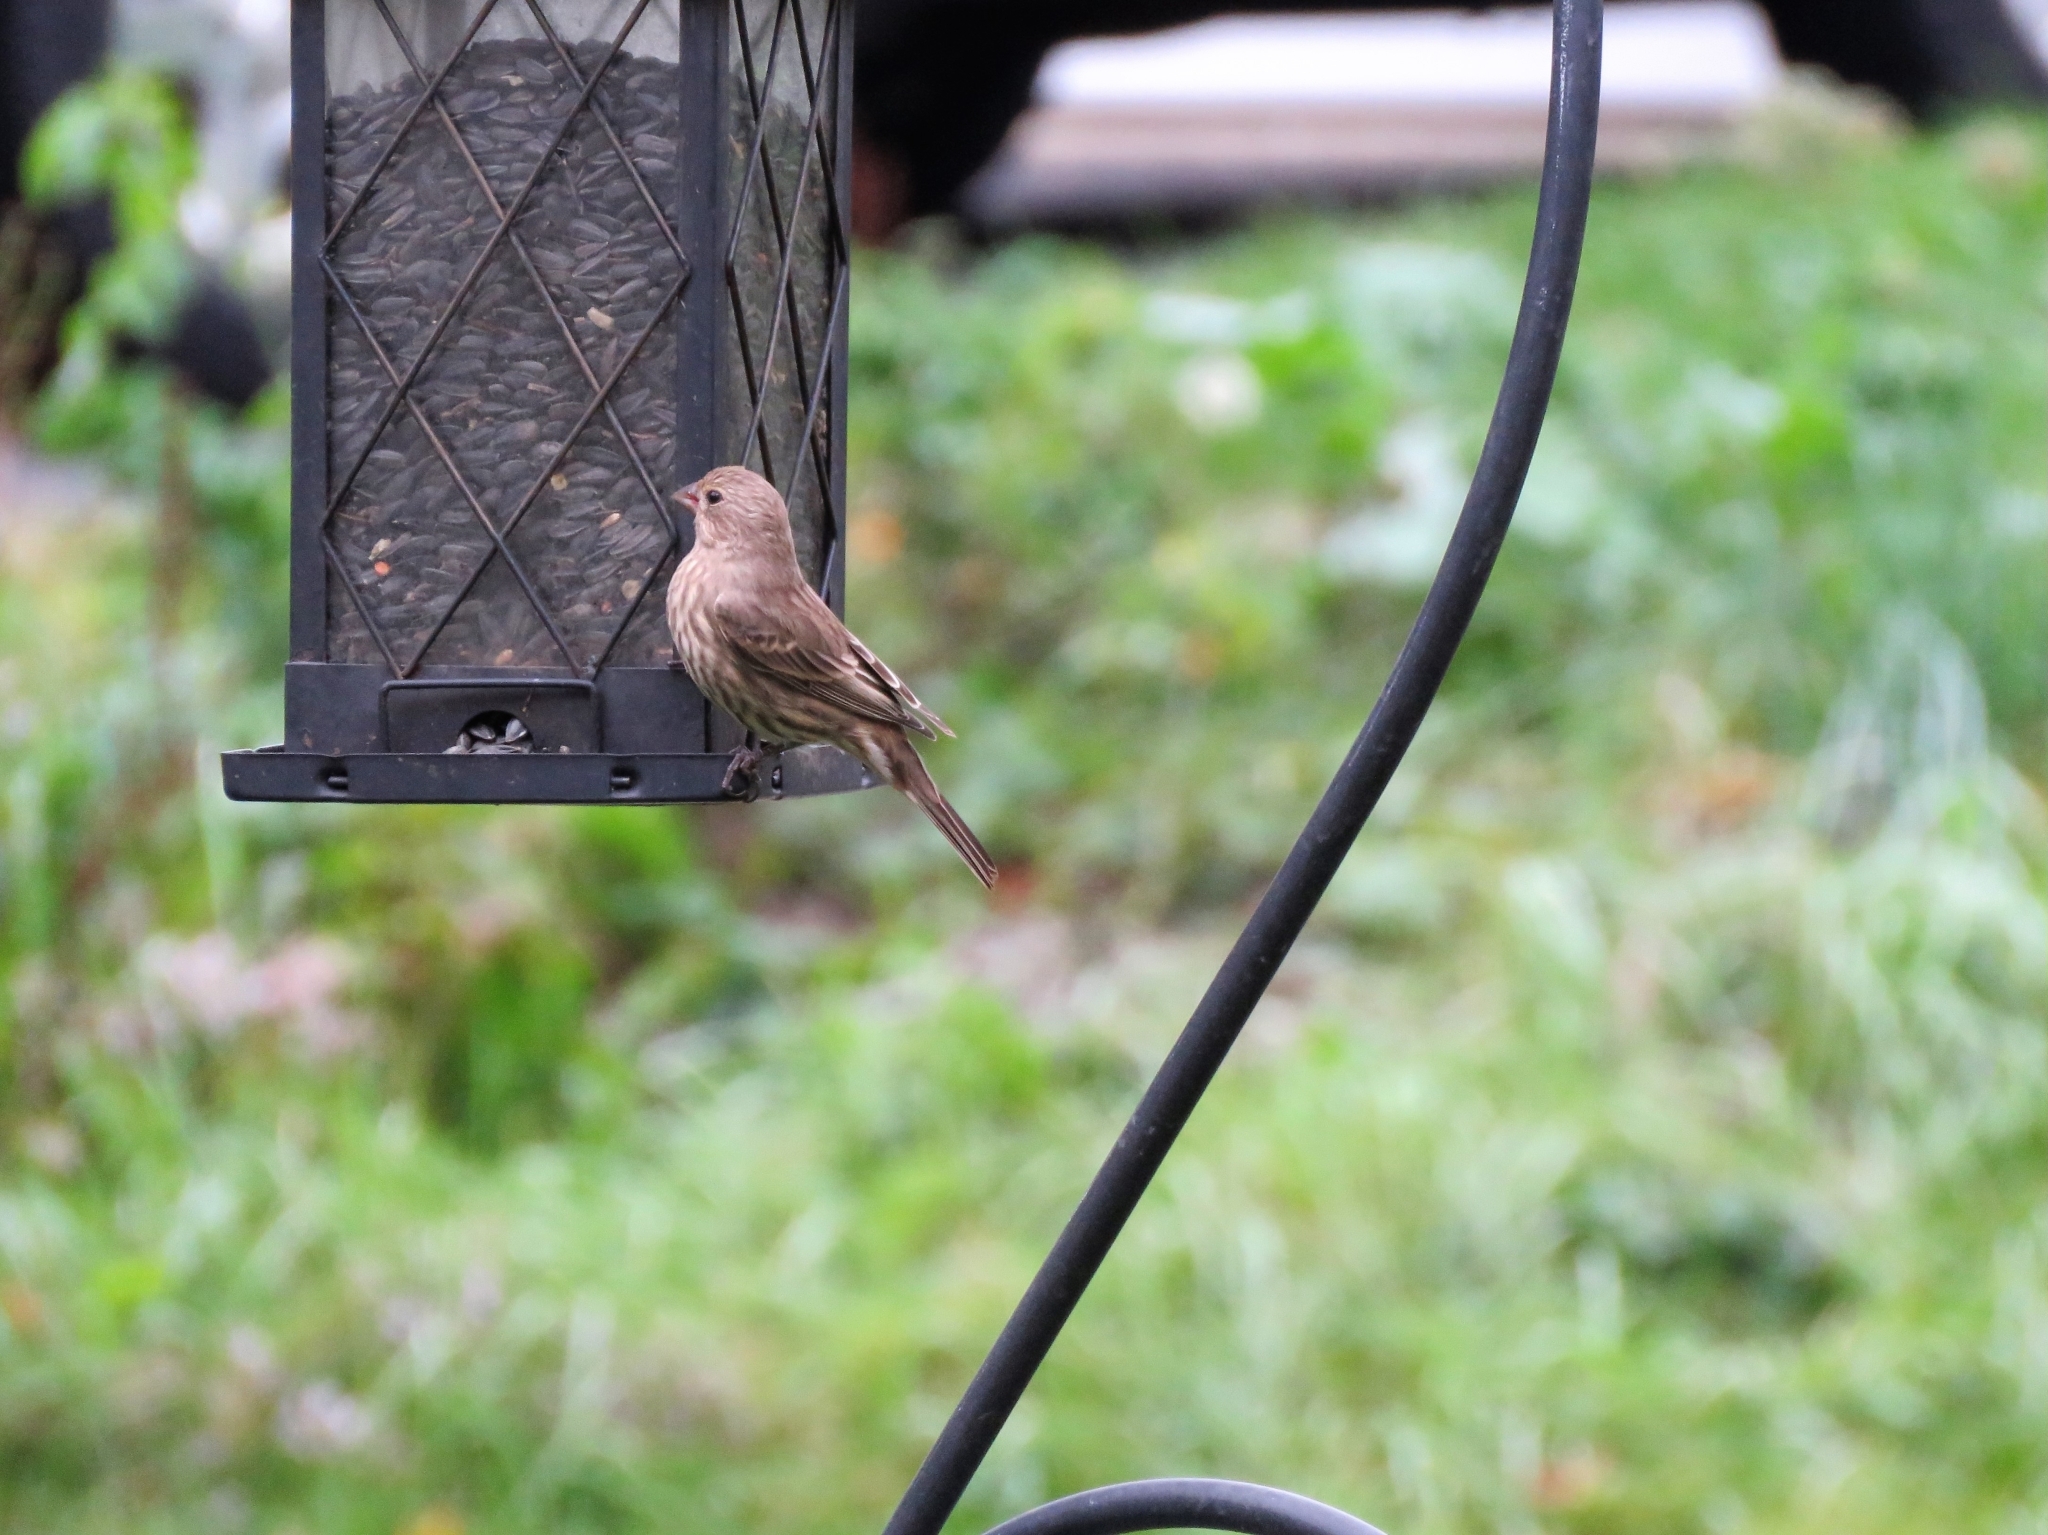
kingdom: Animalia
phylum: Chordata
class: Aves
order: Passeriformes
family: Fringillidae
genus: Haemorhous
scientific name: Haemorhous mexicanus
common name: House finch
